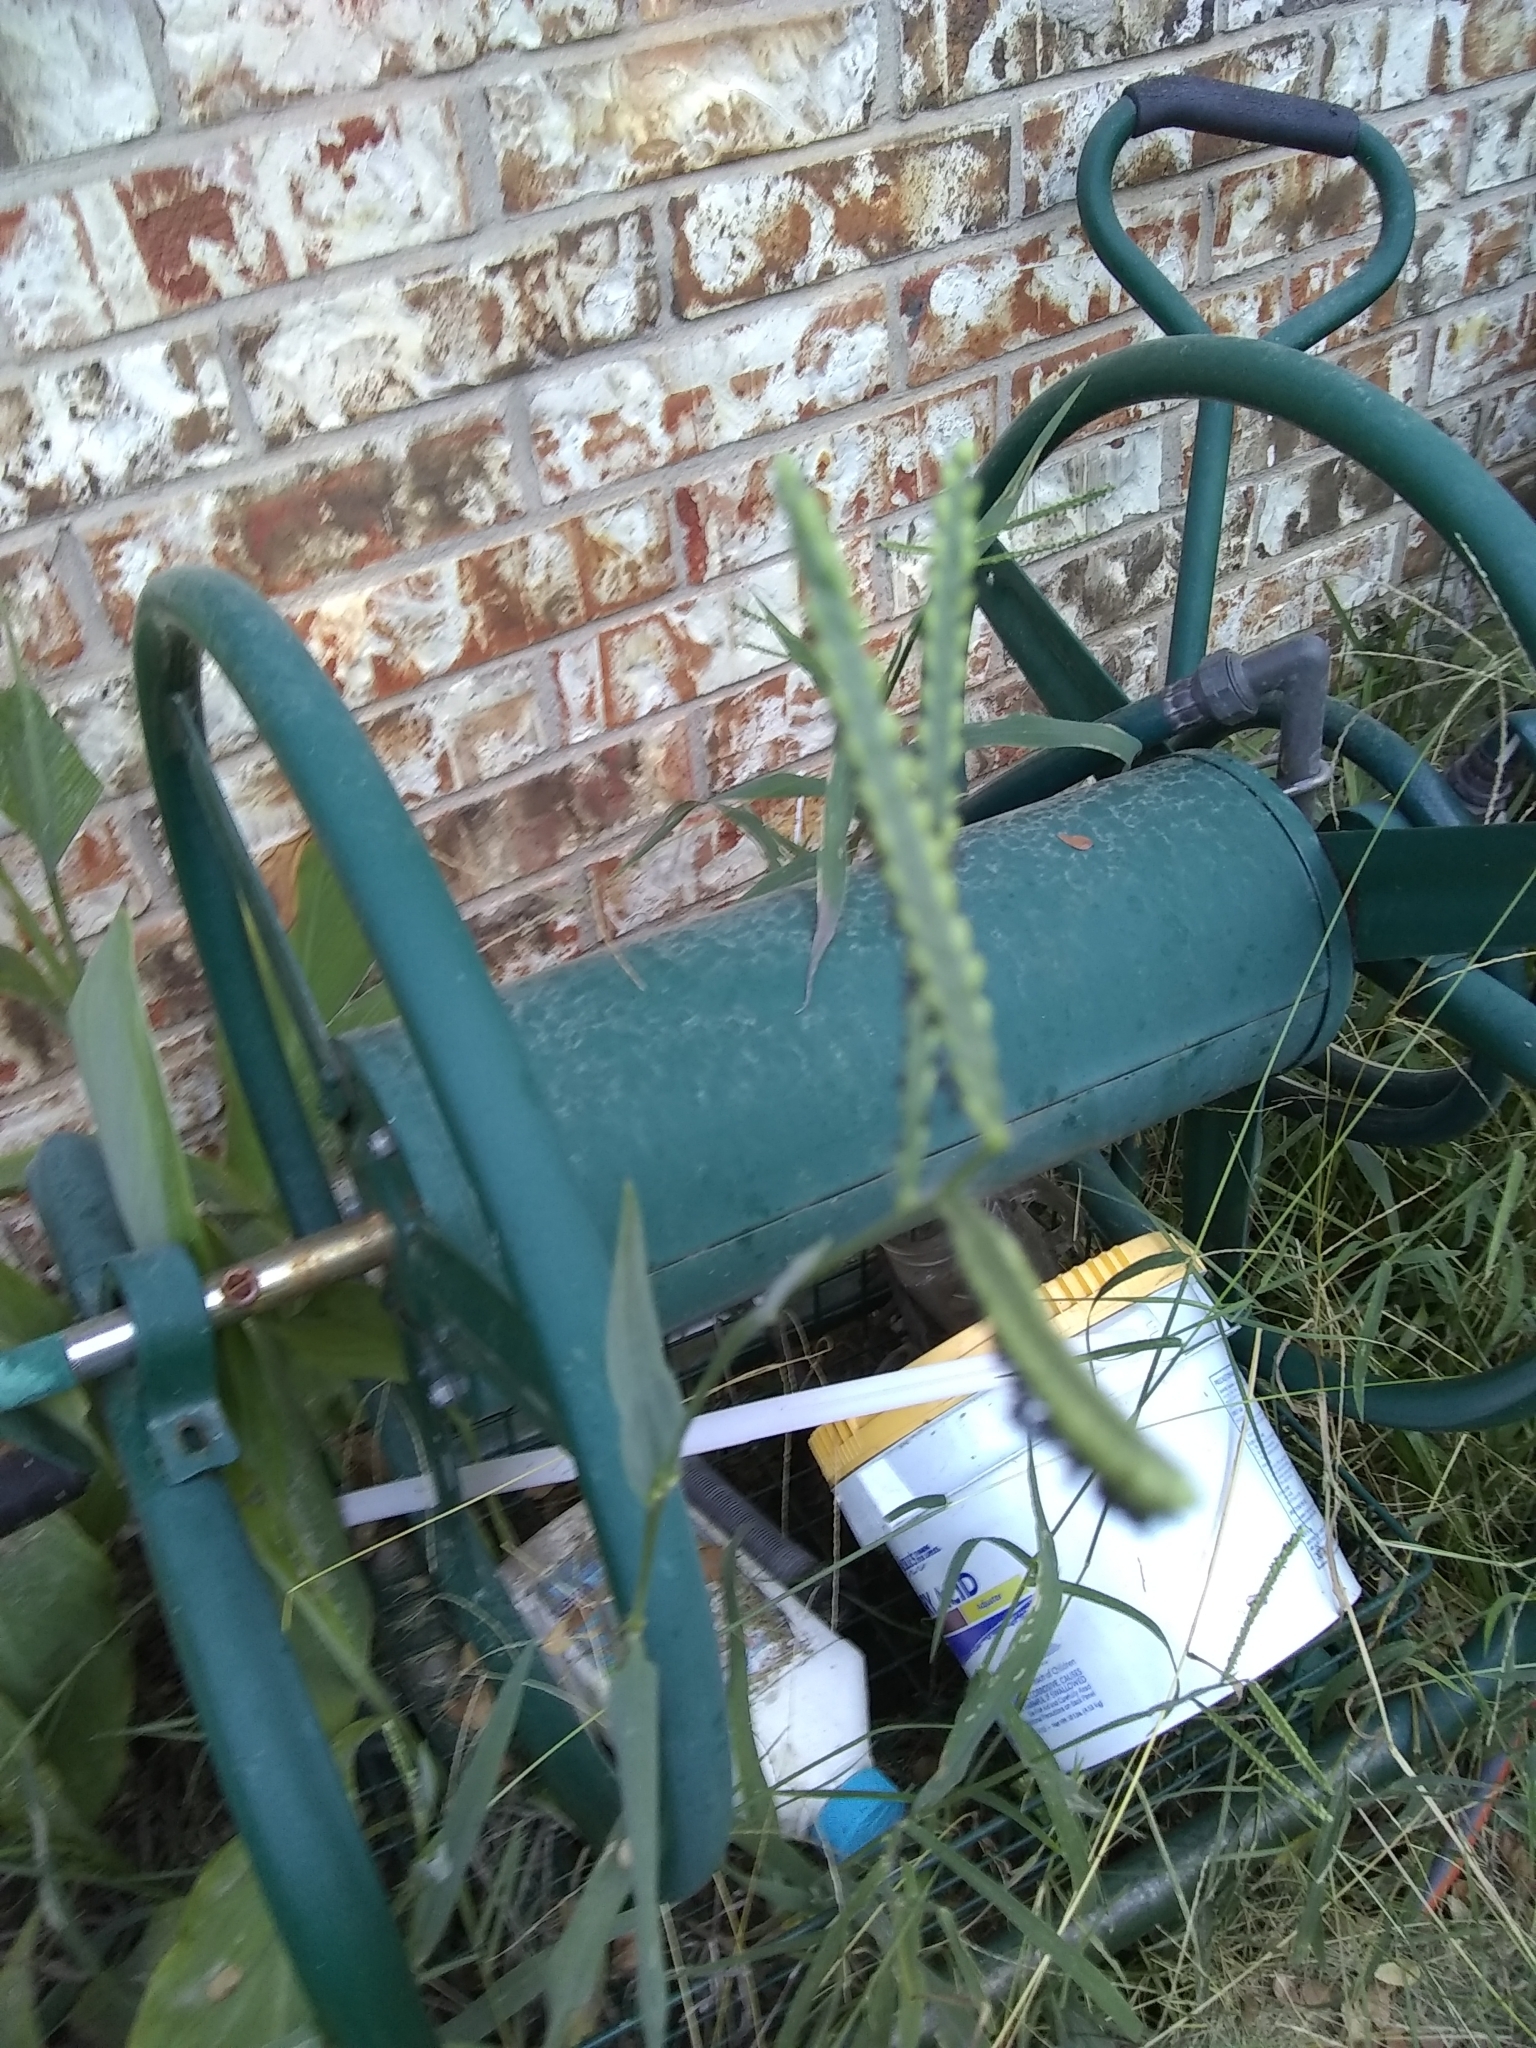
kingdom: Plantae
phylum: Tracheophyta
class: Liliopsida
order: Poales
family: Poaceae
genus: Paspalum
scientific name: Paspalum dilatatum
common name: Dallisgrass
